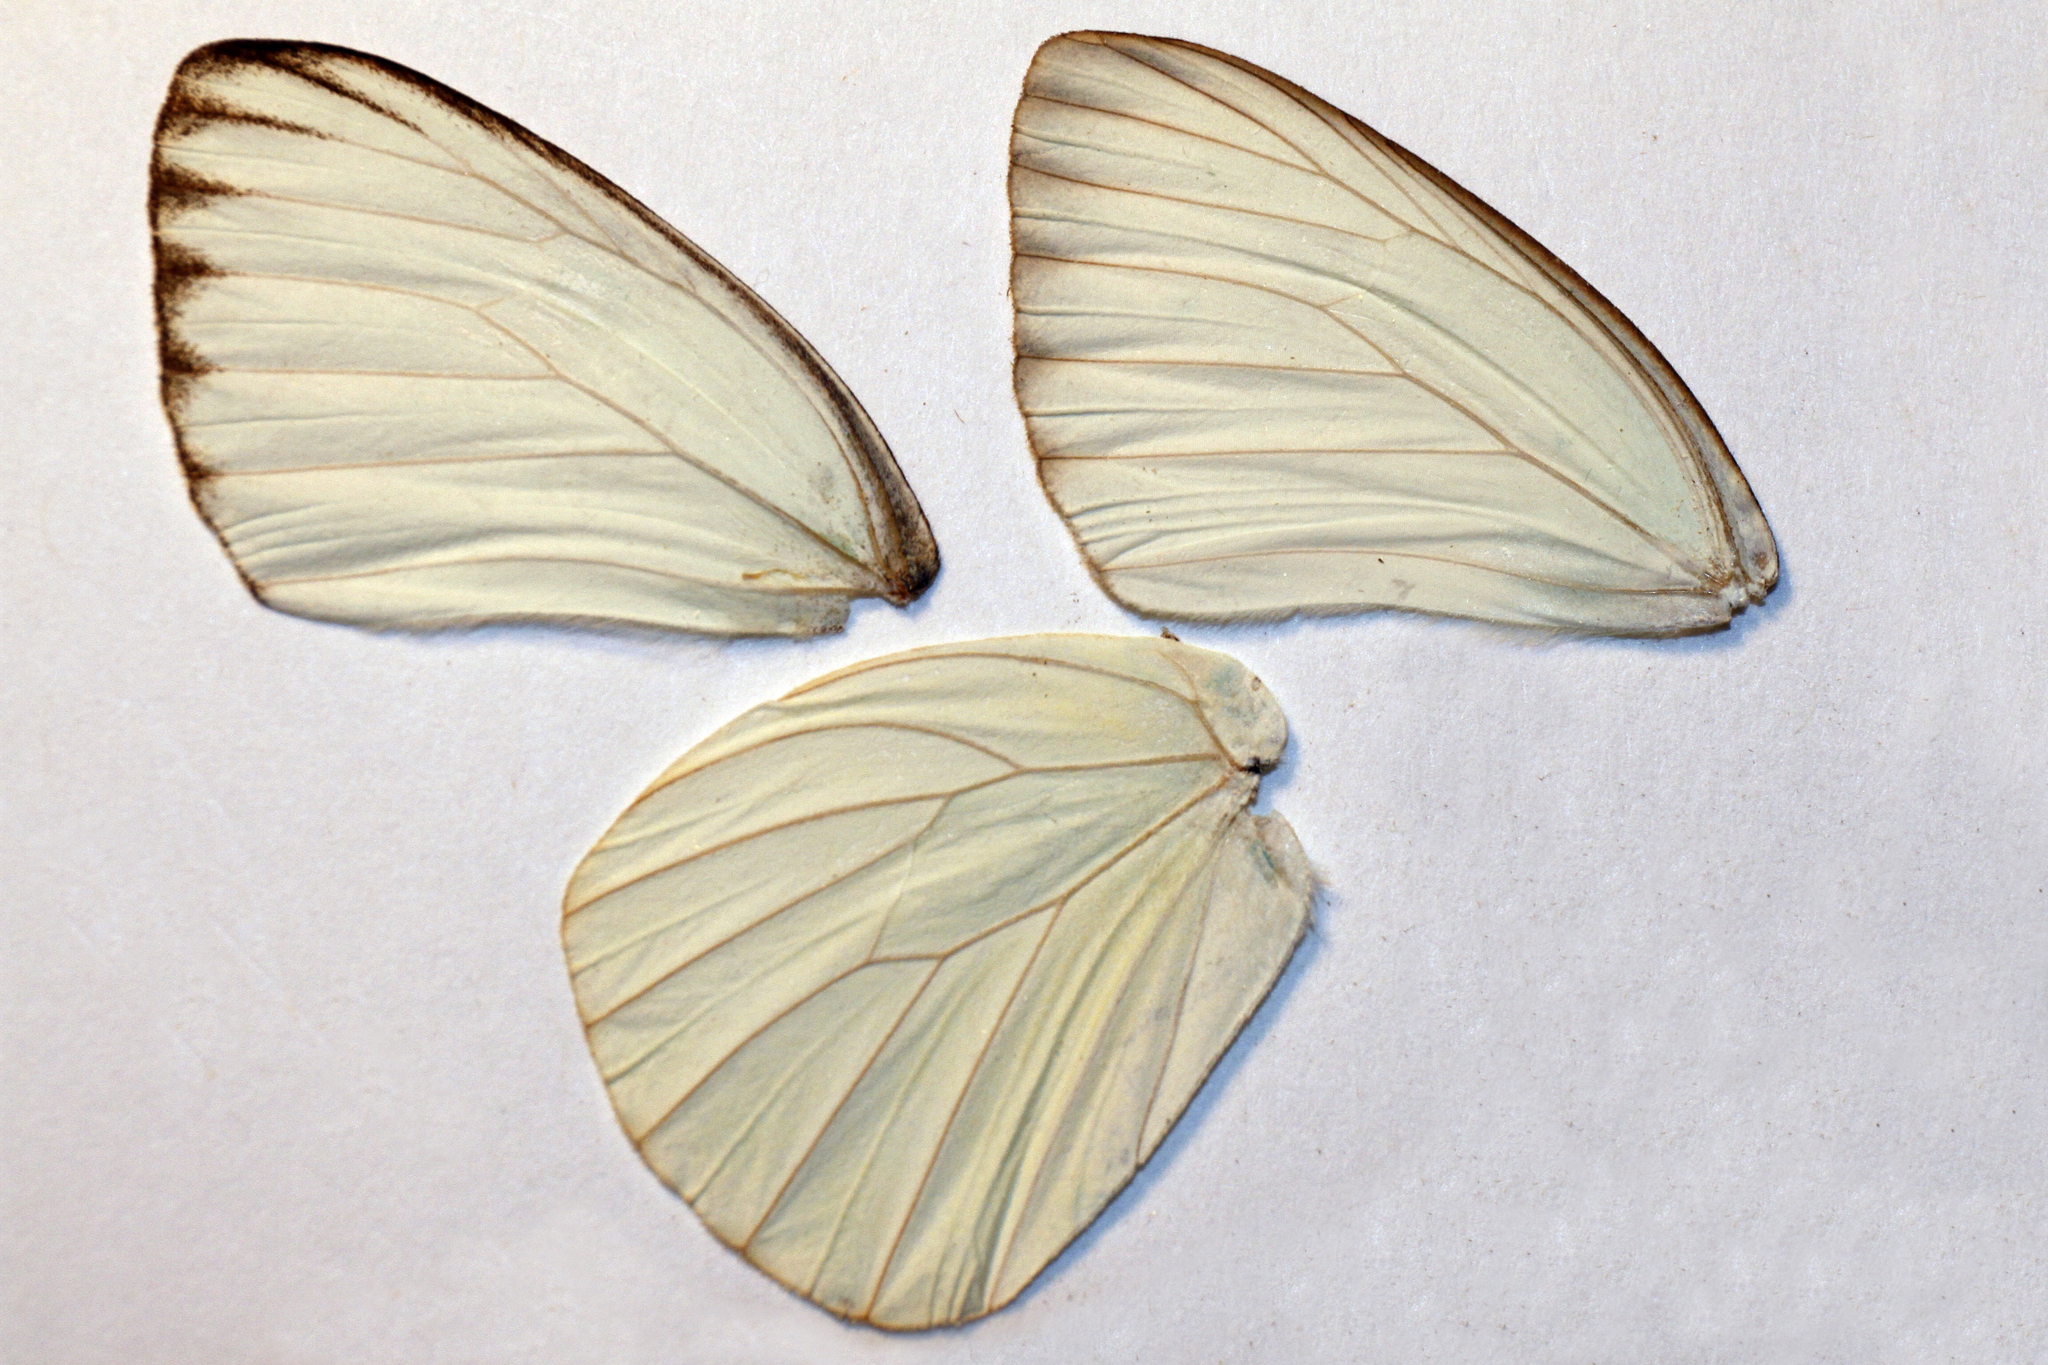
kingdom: Animalia
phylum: Arthropoda
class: Insecta
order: Lepidoptera
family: Pieridae
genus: Ascia
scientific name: Ascia monuste
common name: Great southern white
